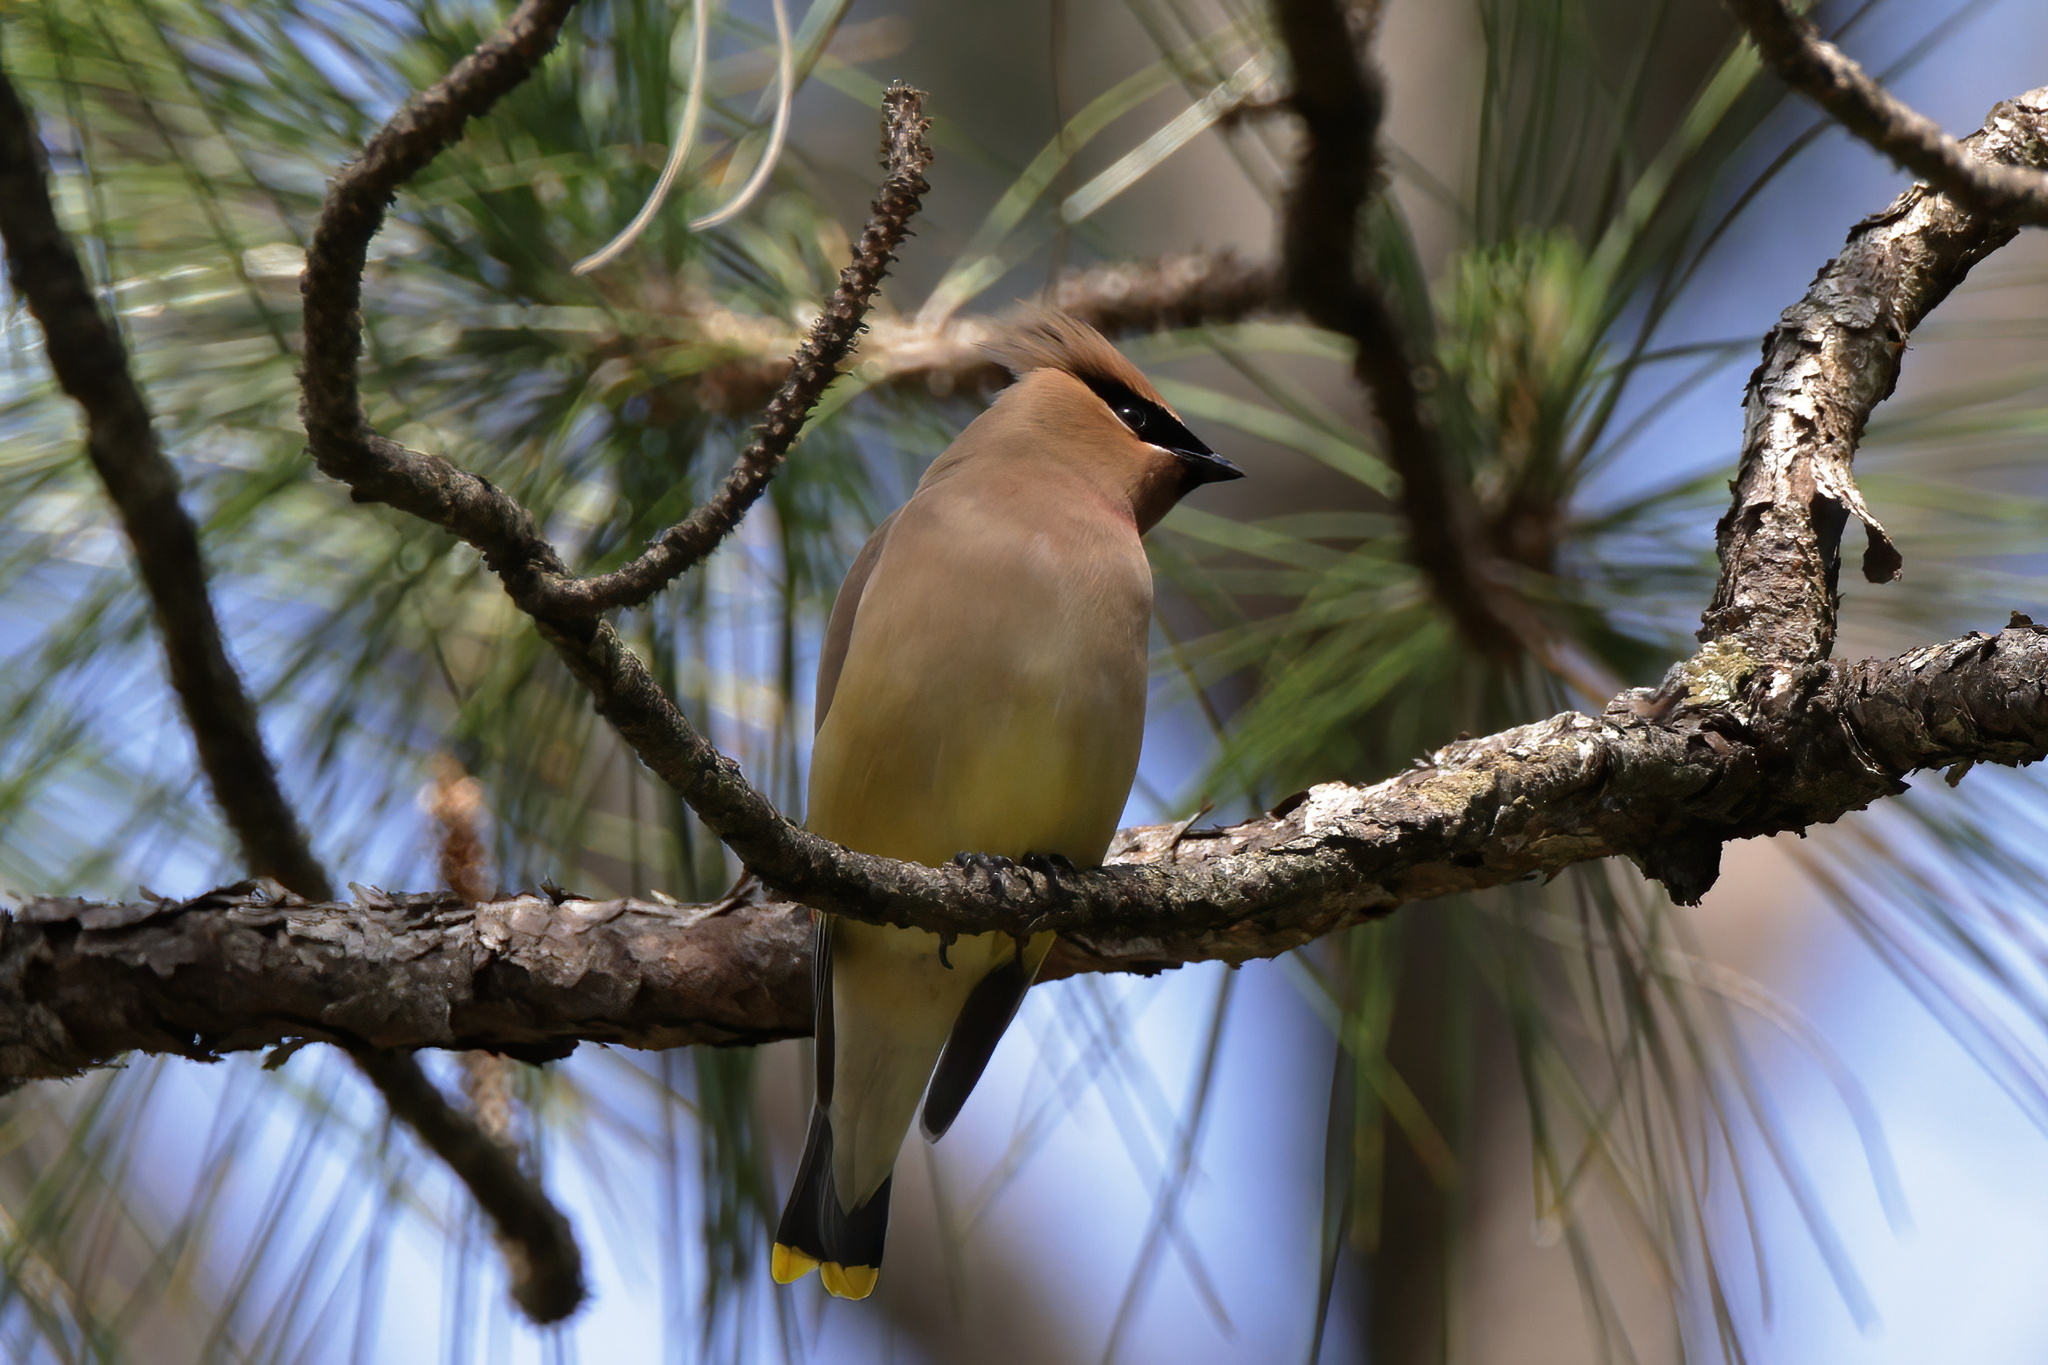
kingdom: Animalia
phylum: Chordata
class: Aves
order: Passeriformes
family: Bombycillidae
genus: Bombycilla
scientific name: Bombycilla cedrorum
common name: Cedar waxwing
